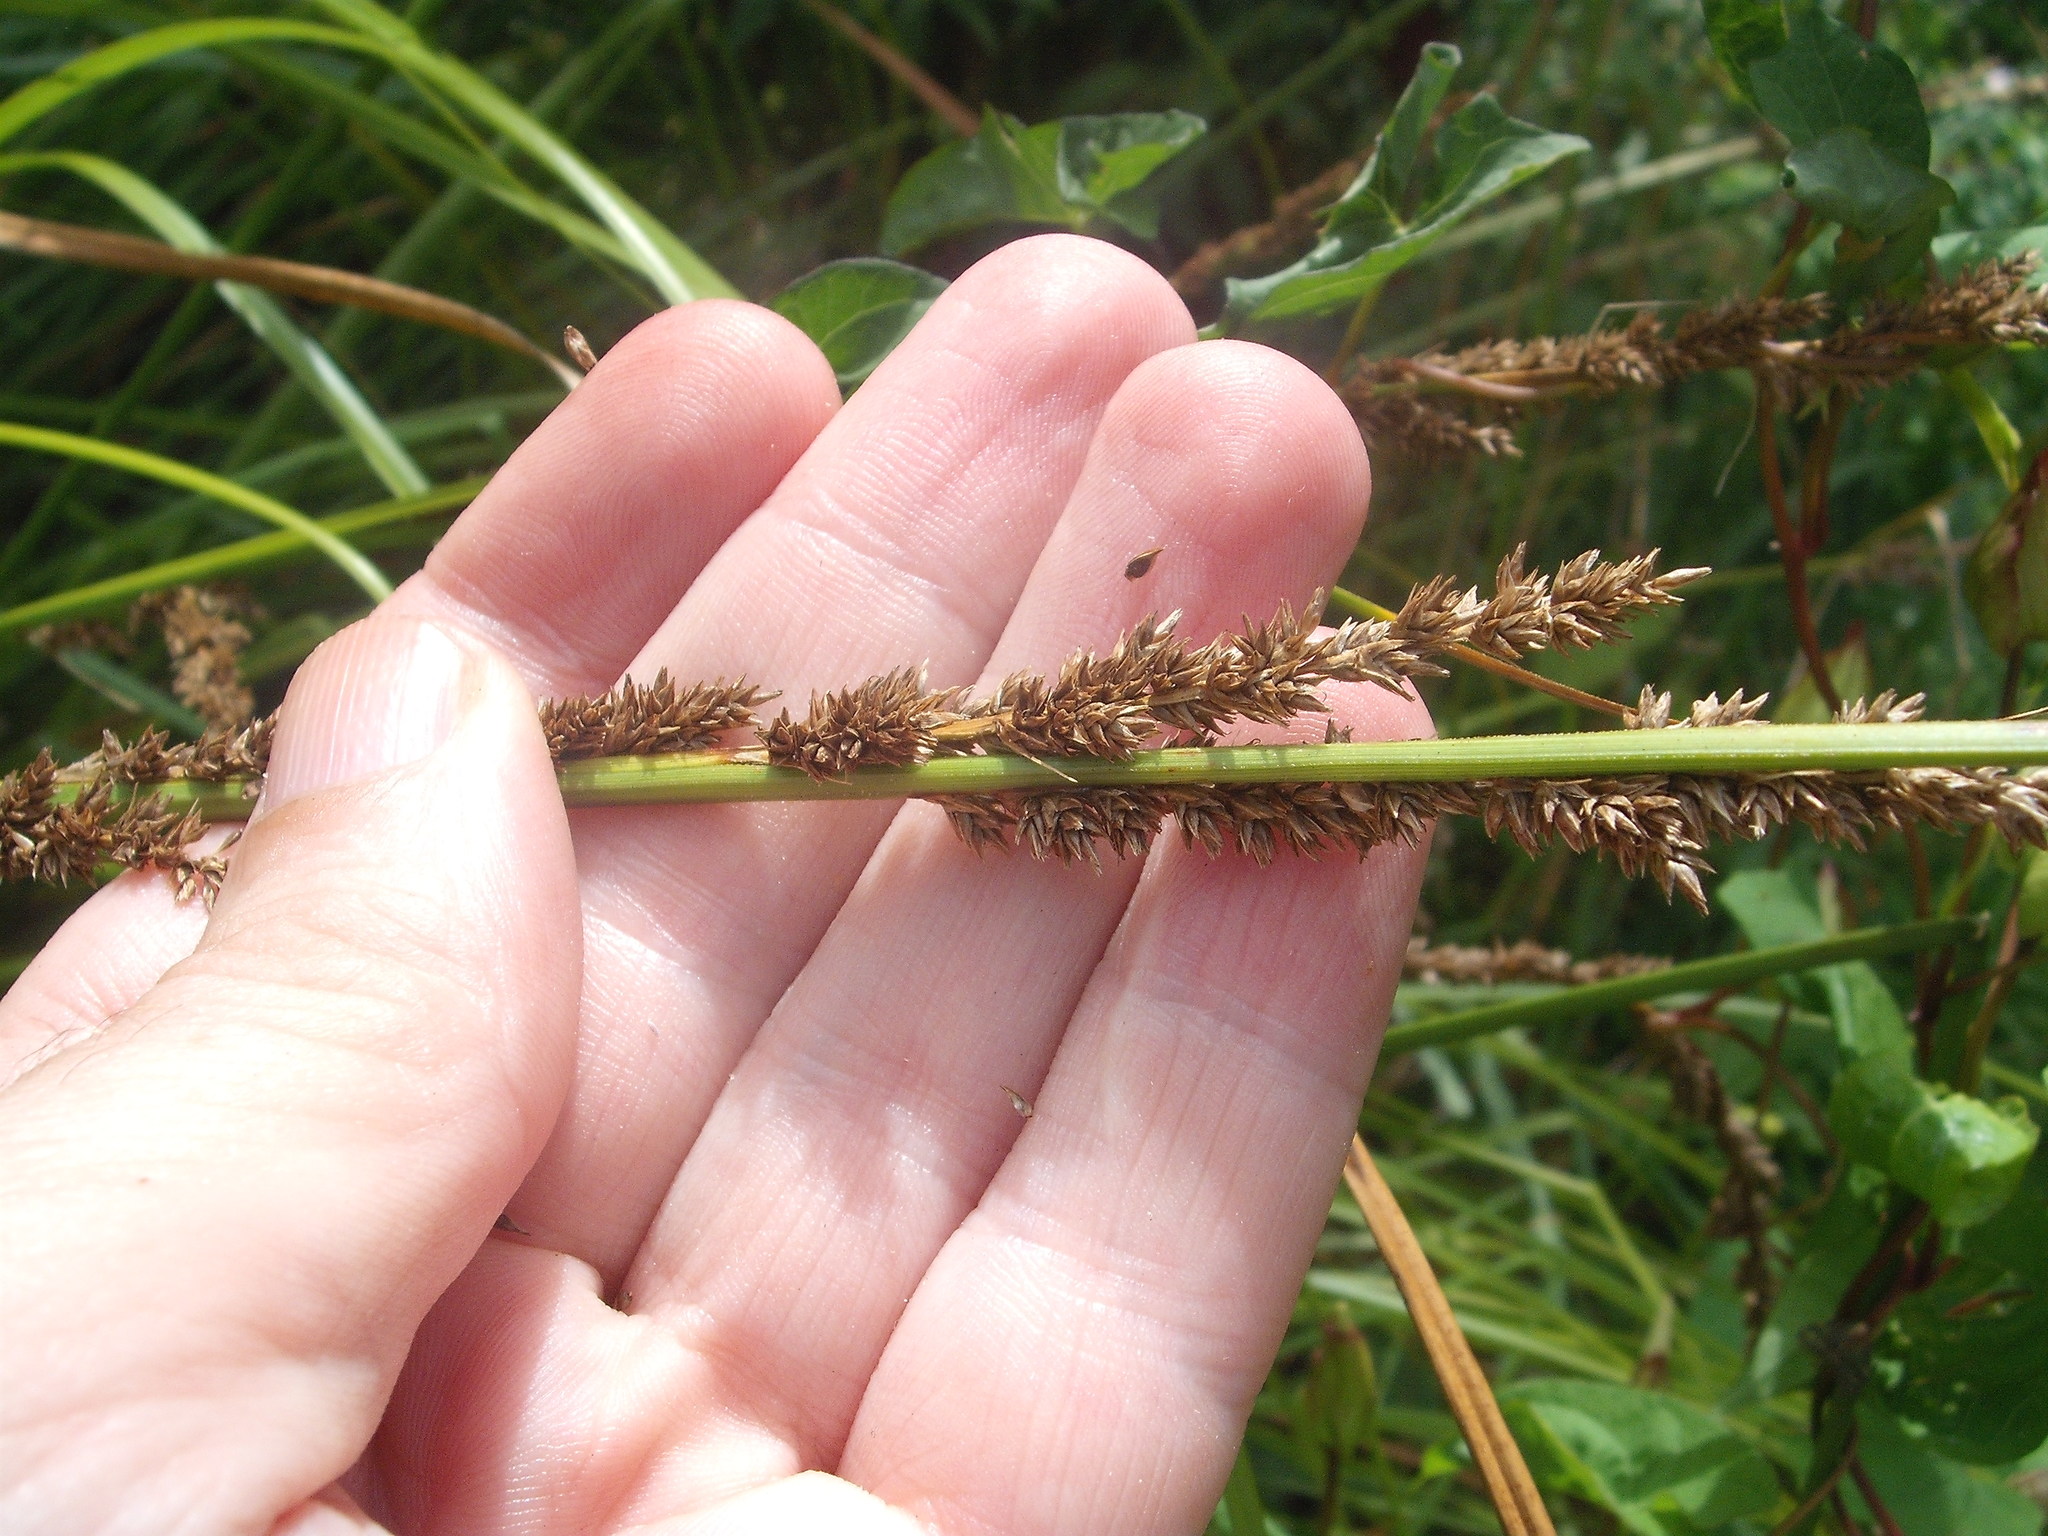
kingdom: Plantae
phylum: Tracheophyta
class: Liliopsida
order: Poales
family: Cyperaceae
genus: Carex
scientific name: Carex virgata
